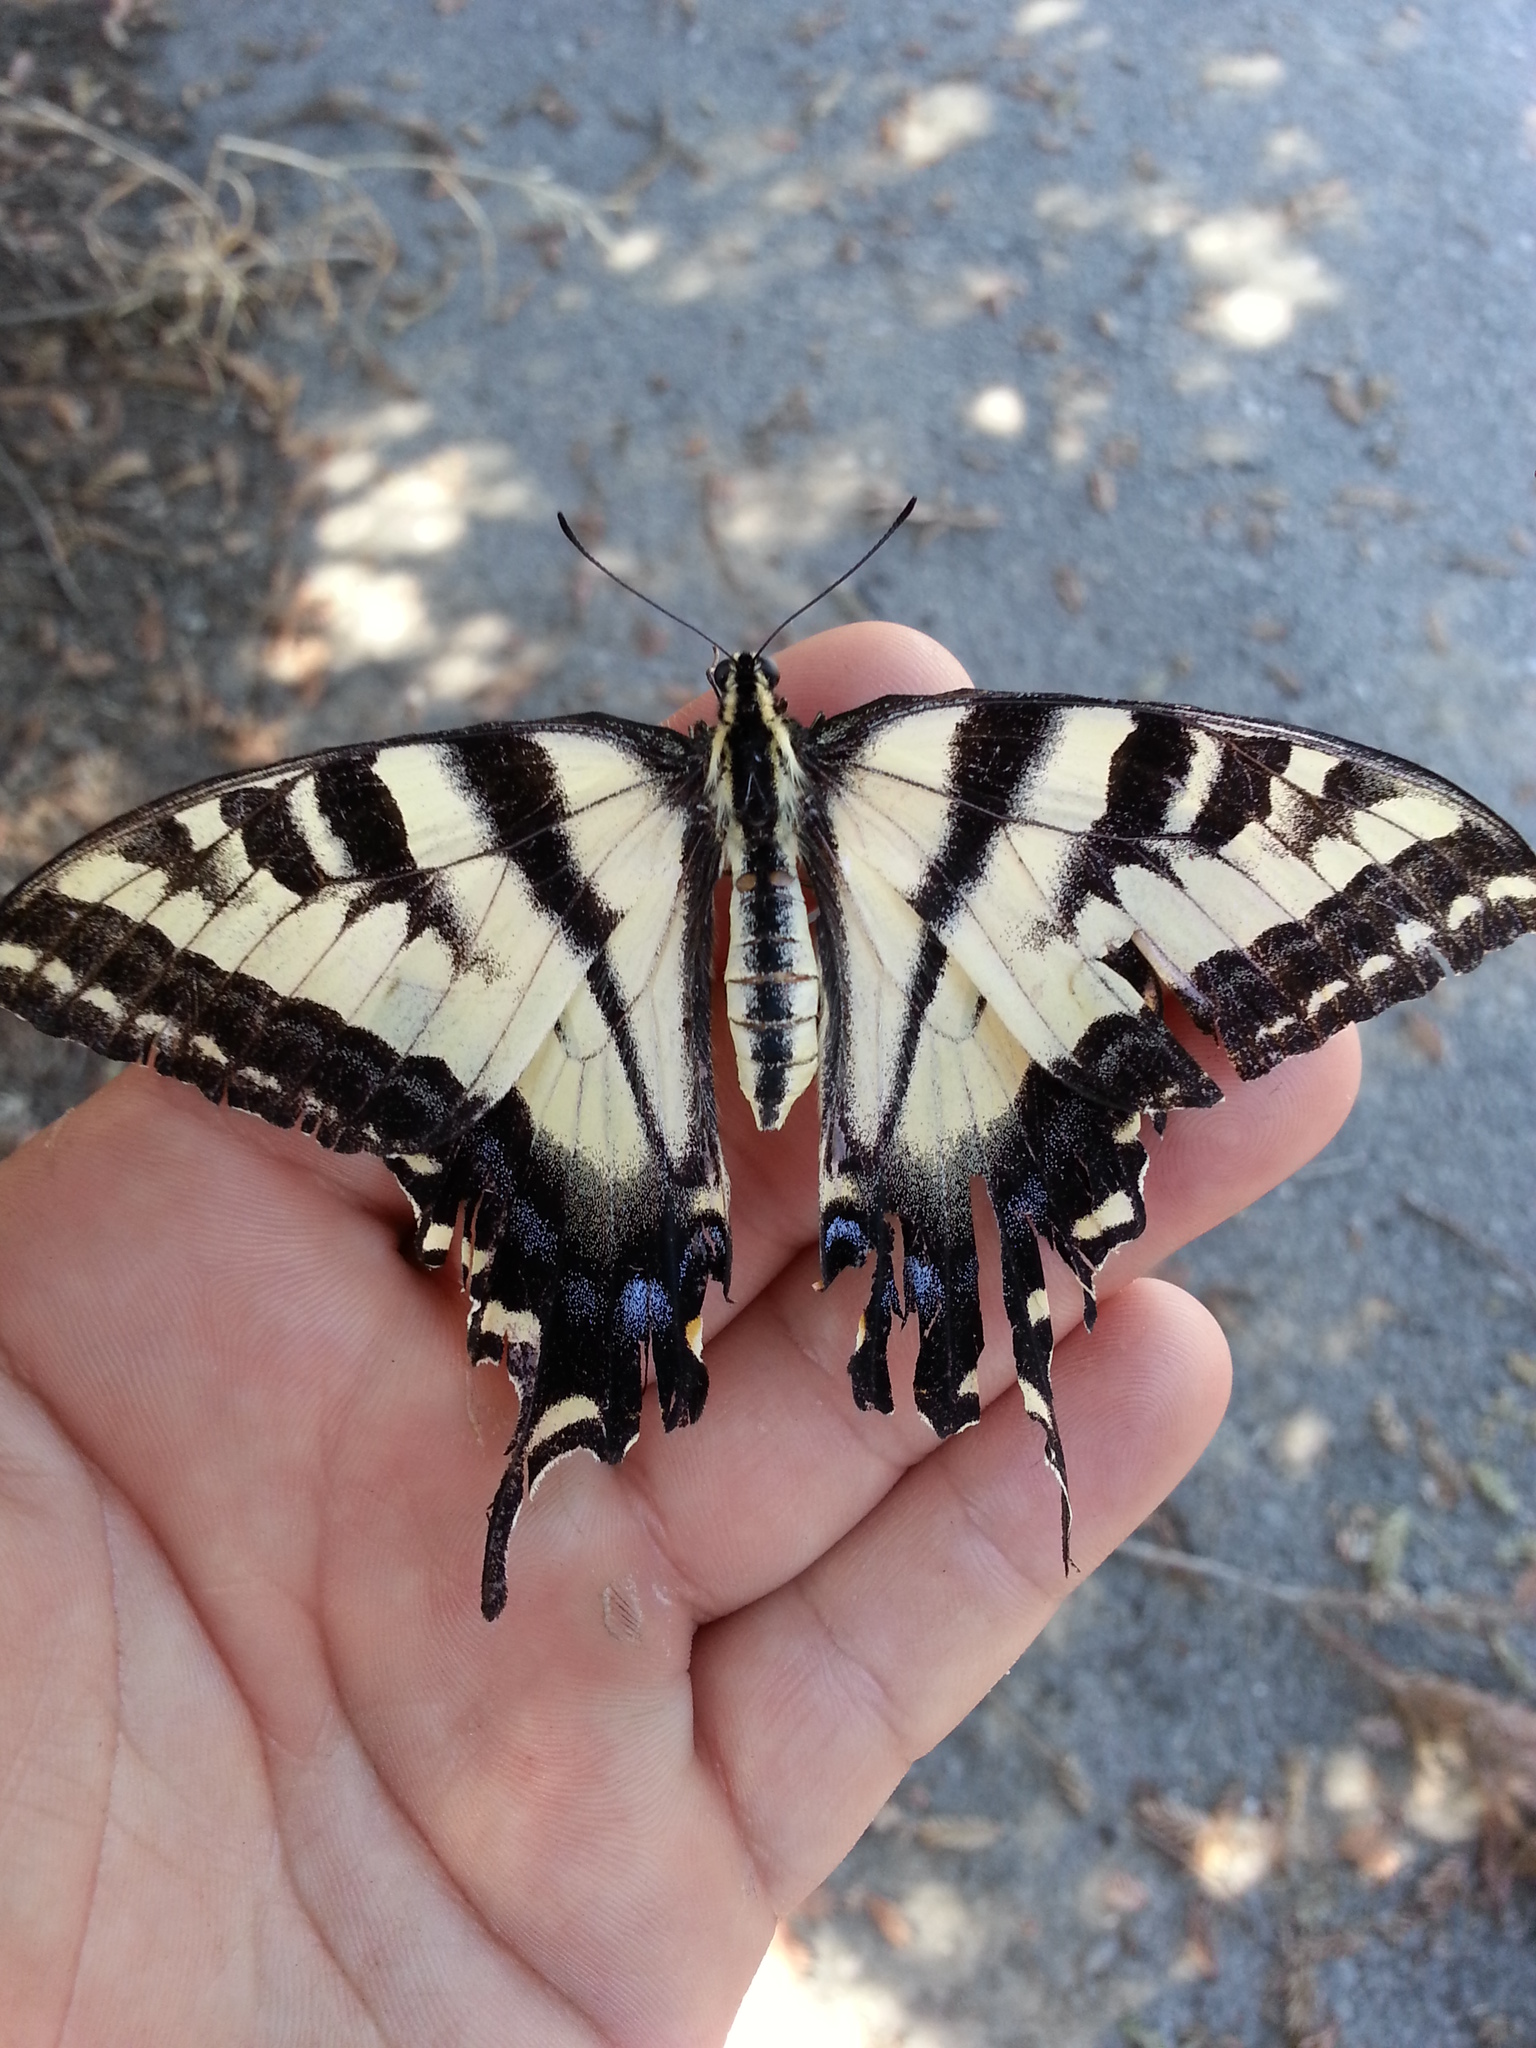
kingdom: Animalia
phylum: Arthropoda
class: Insecta
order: Lepidoptera
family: Papilionidae
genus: Papilio
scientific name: Papilio rutulus
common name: Western tiger swallowtail
